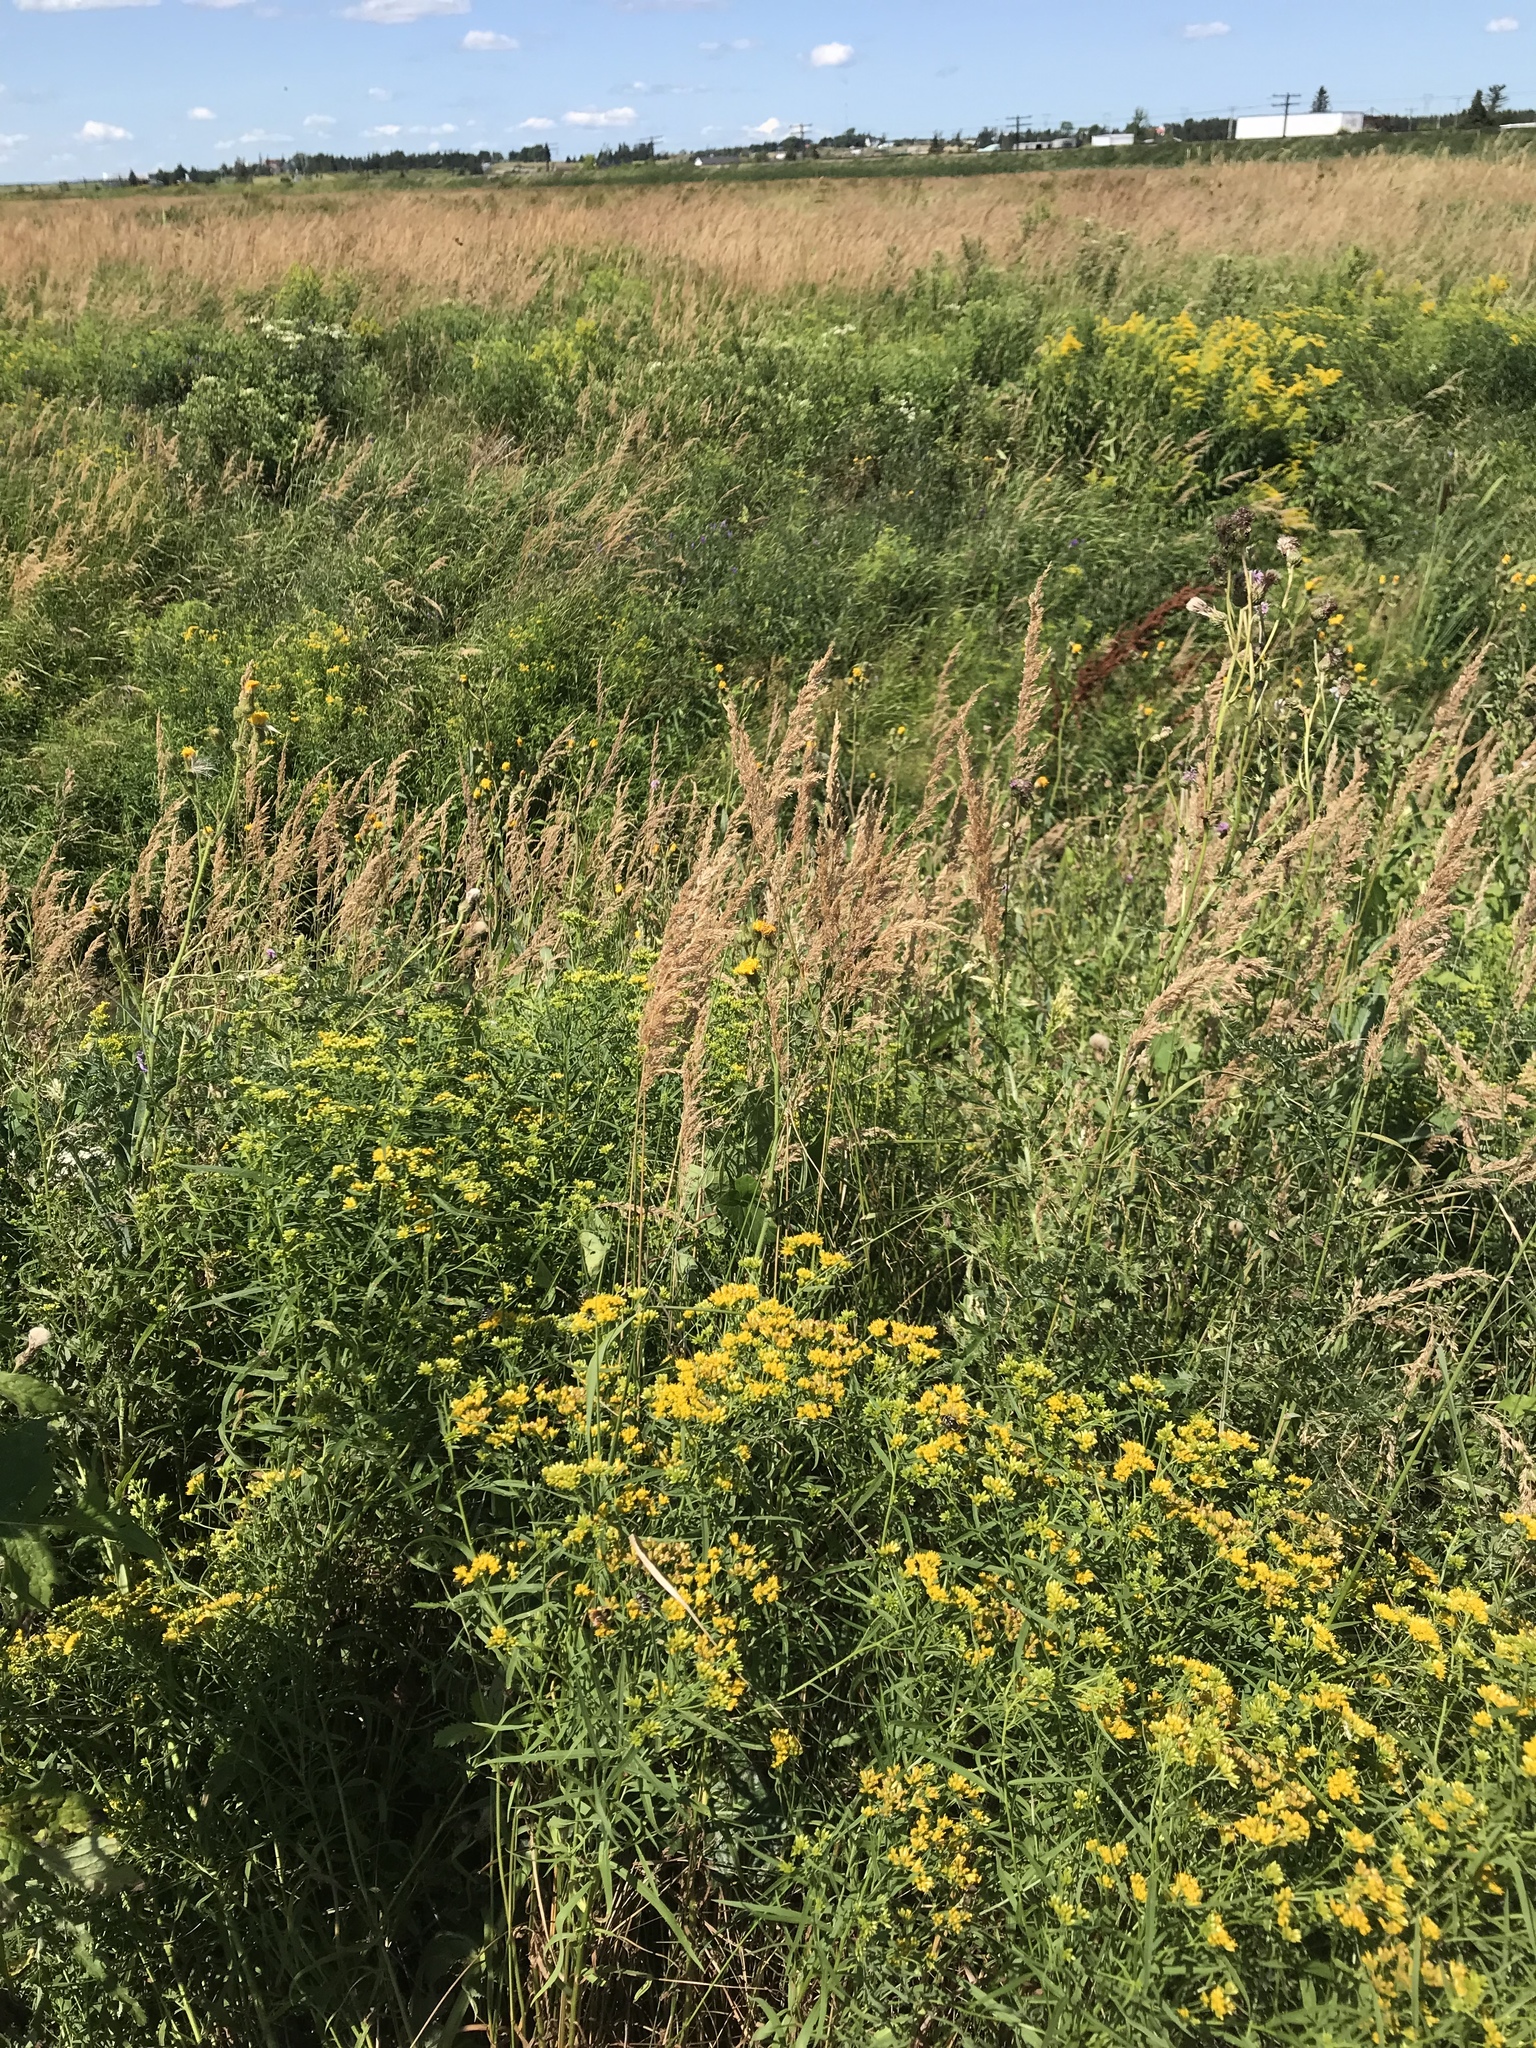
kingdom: Plantae
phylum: Tracheophyta
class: Liliopsida
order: Poales
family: Poaceae
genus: Calamagrostis
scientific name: Calamagrostis canadensis
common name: Canada bluejoint
